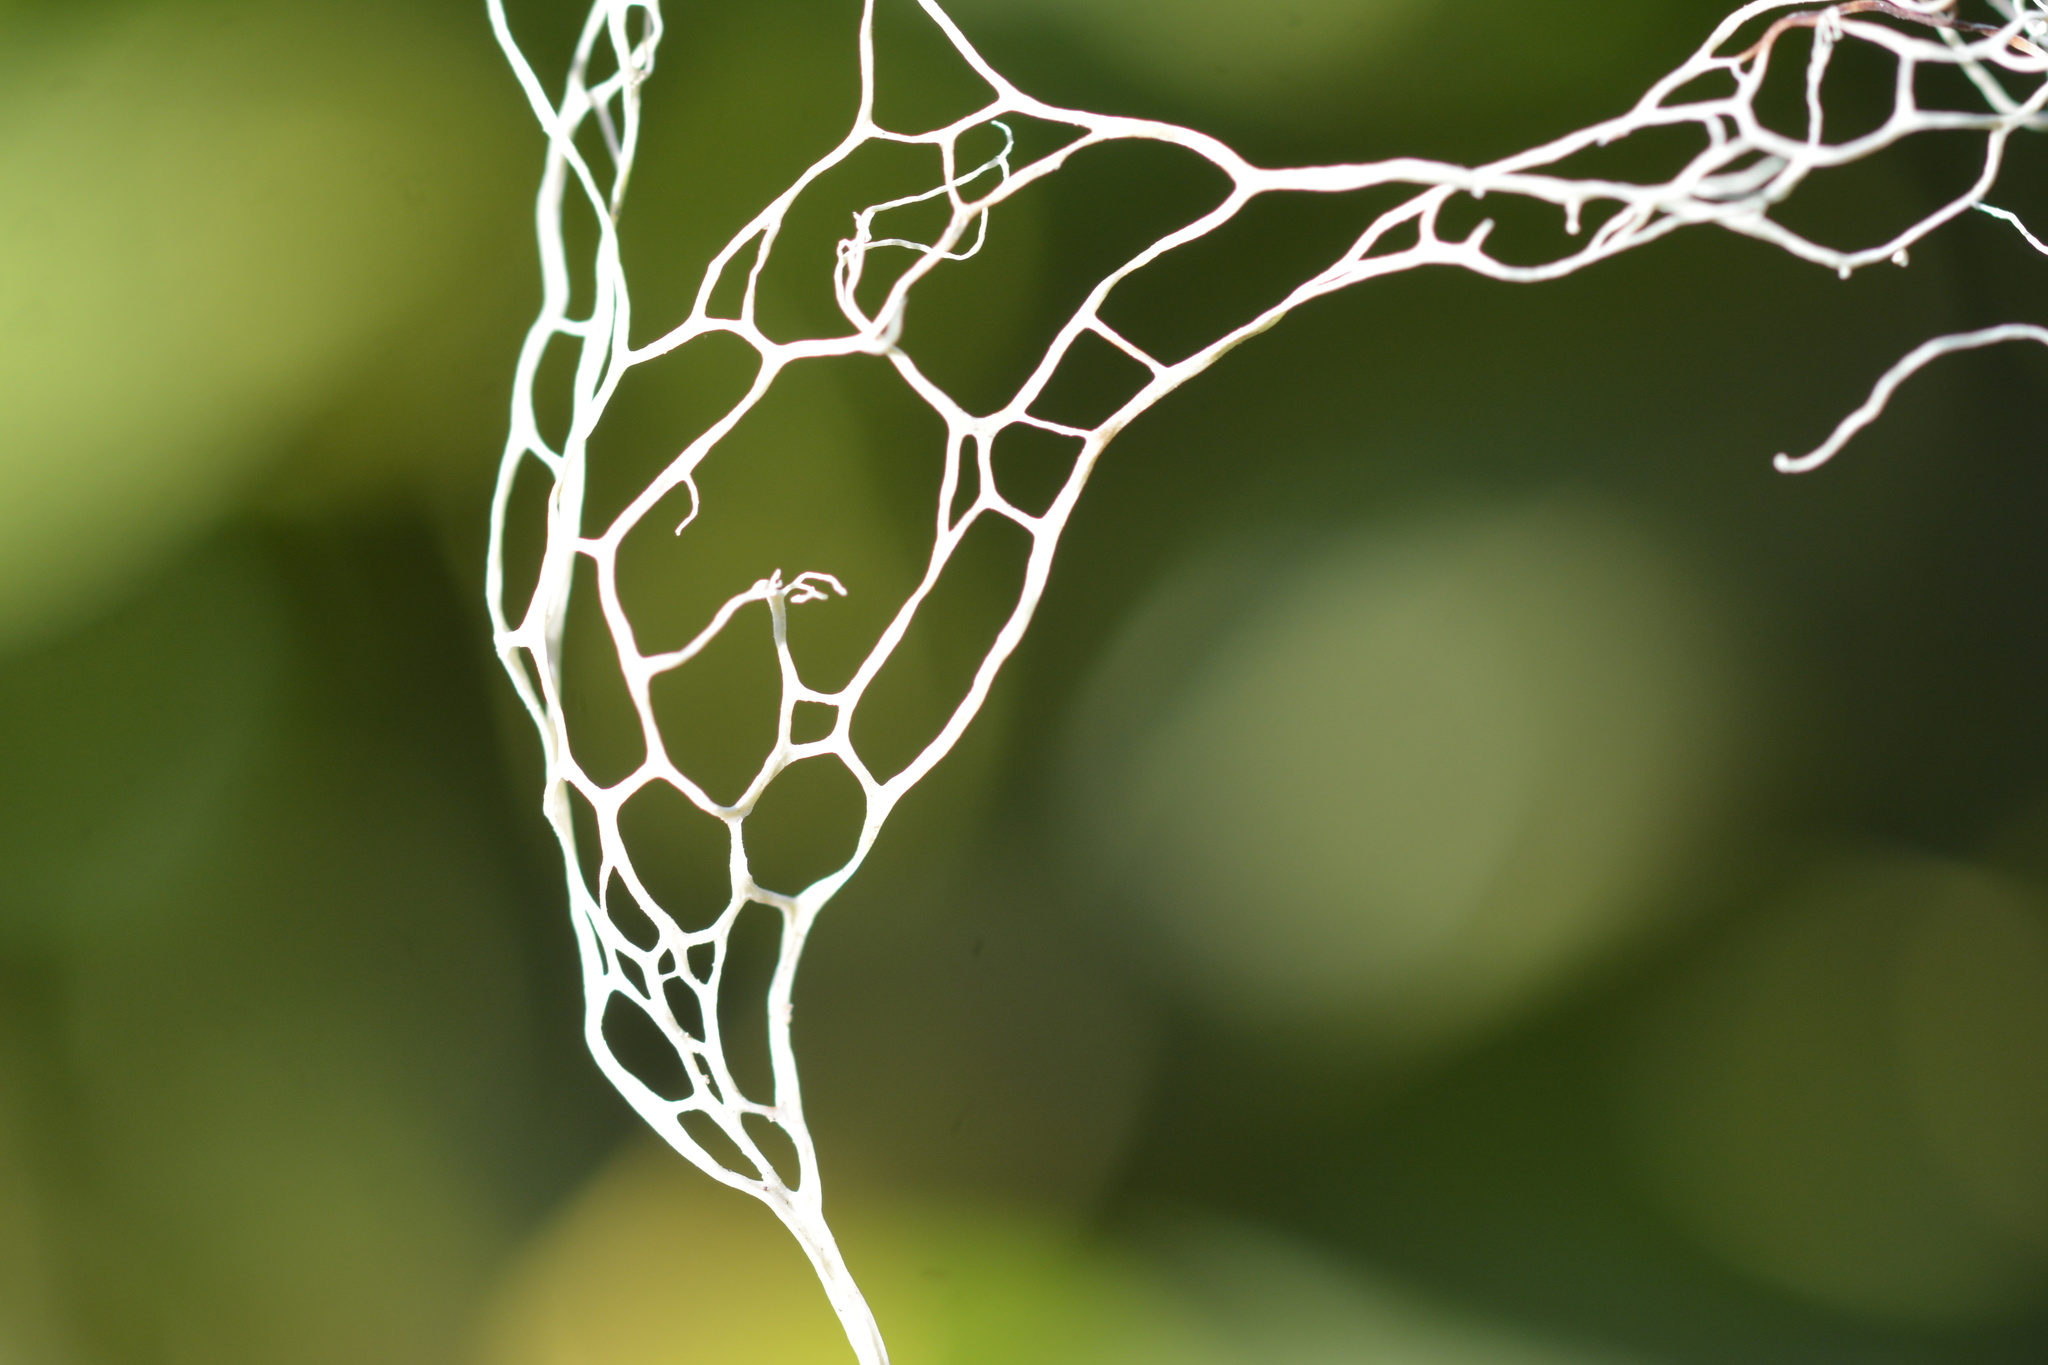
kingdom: Fungi
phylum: Ascomycota
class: Lecanoromycetes
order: Lecanorales
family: Ramalinaceae
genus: Ramalina
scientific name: Ramalina menziesii
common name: Lace lichen
